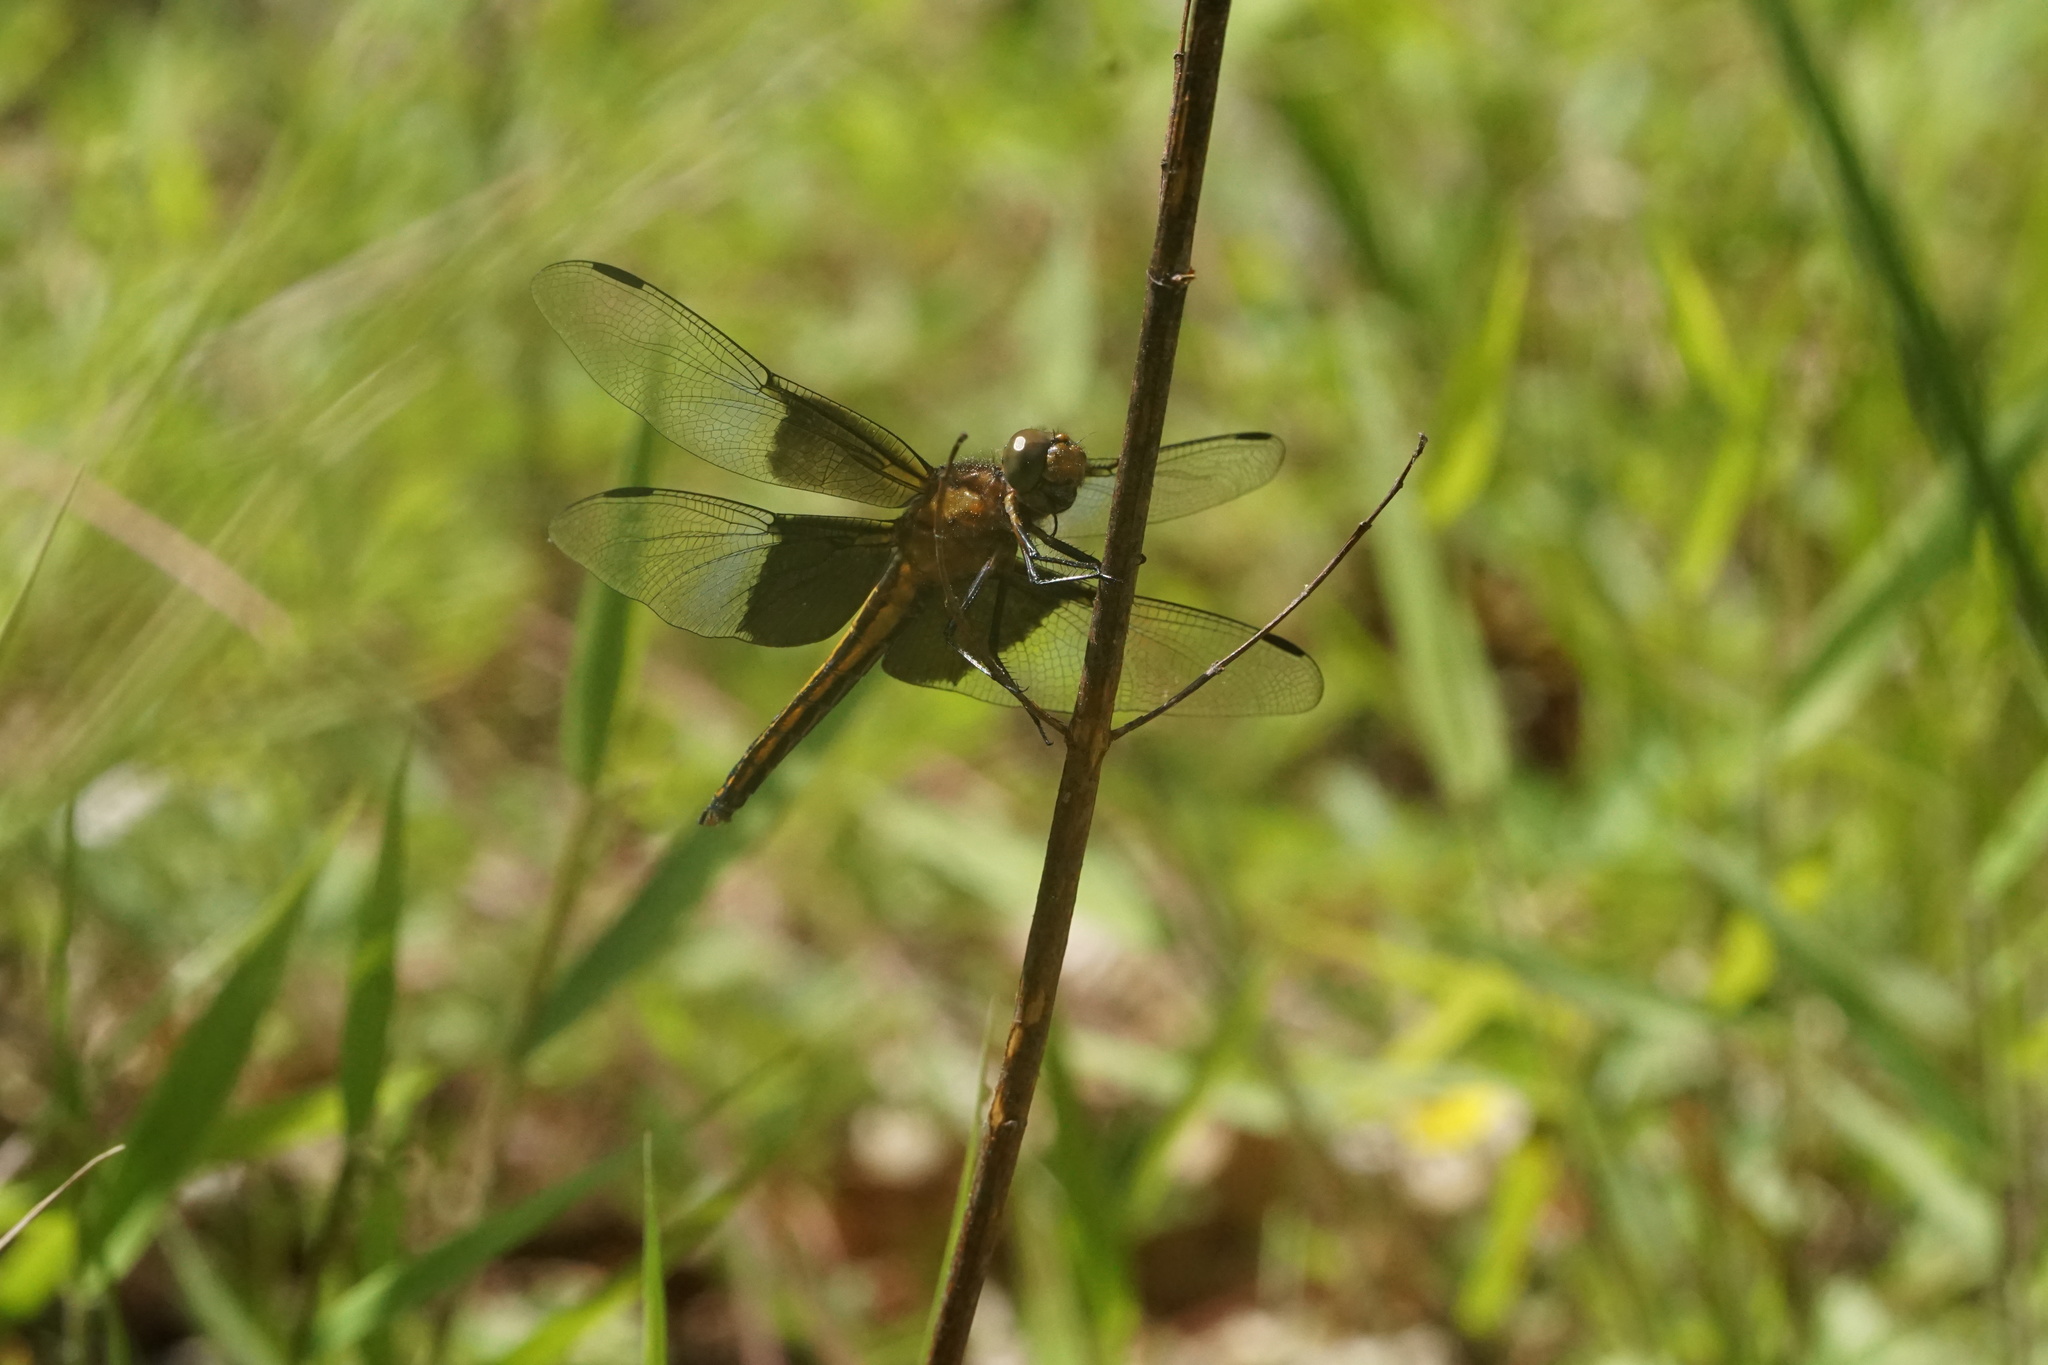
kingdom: Animalia
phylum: Arthropoda
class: Insecta
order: Odonata
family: Libellulidae
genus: Libellula
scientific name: Libellula luctuosa
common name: Widow skimmer
